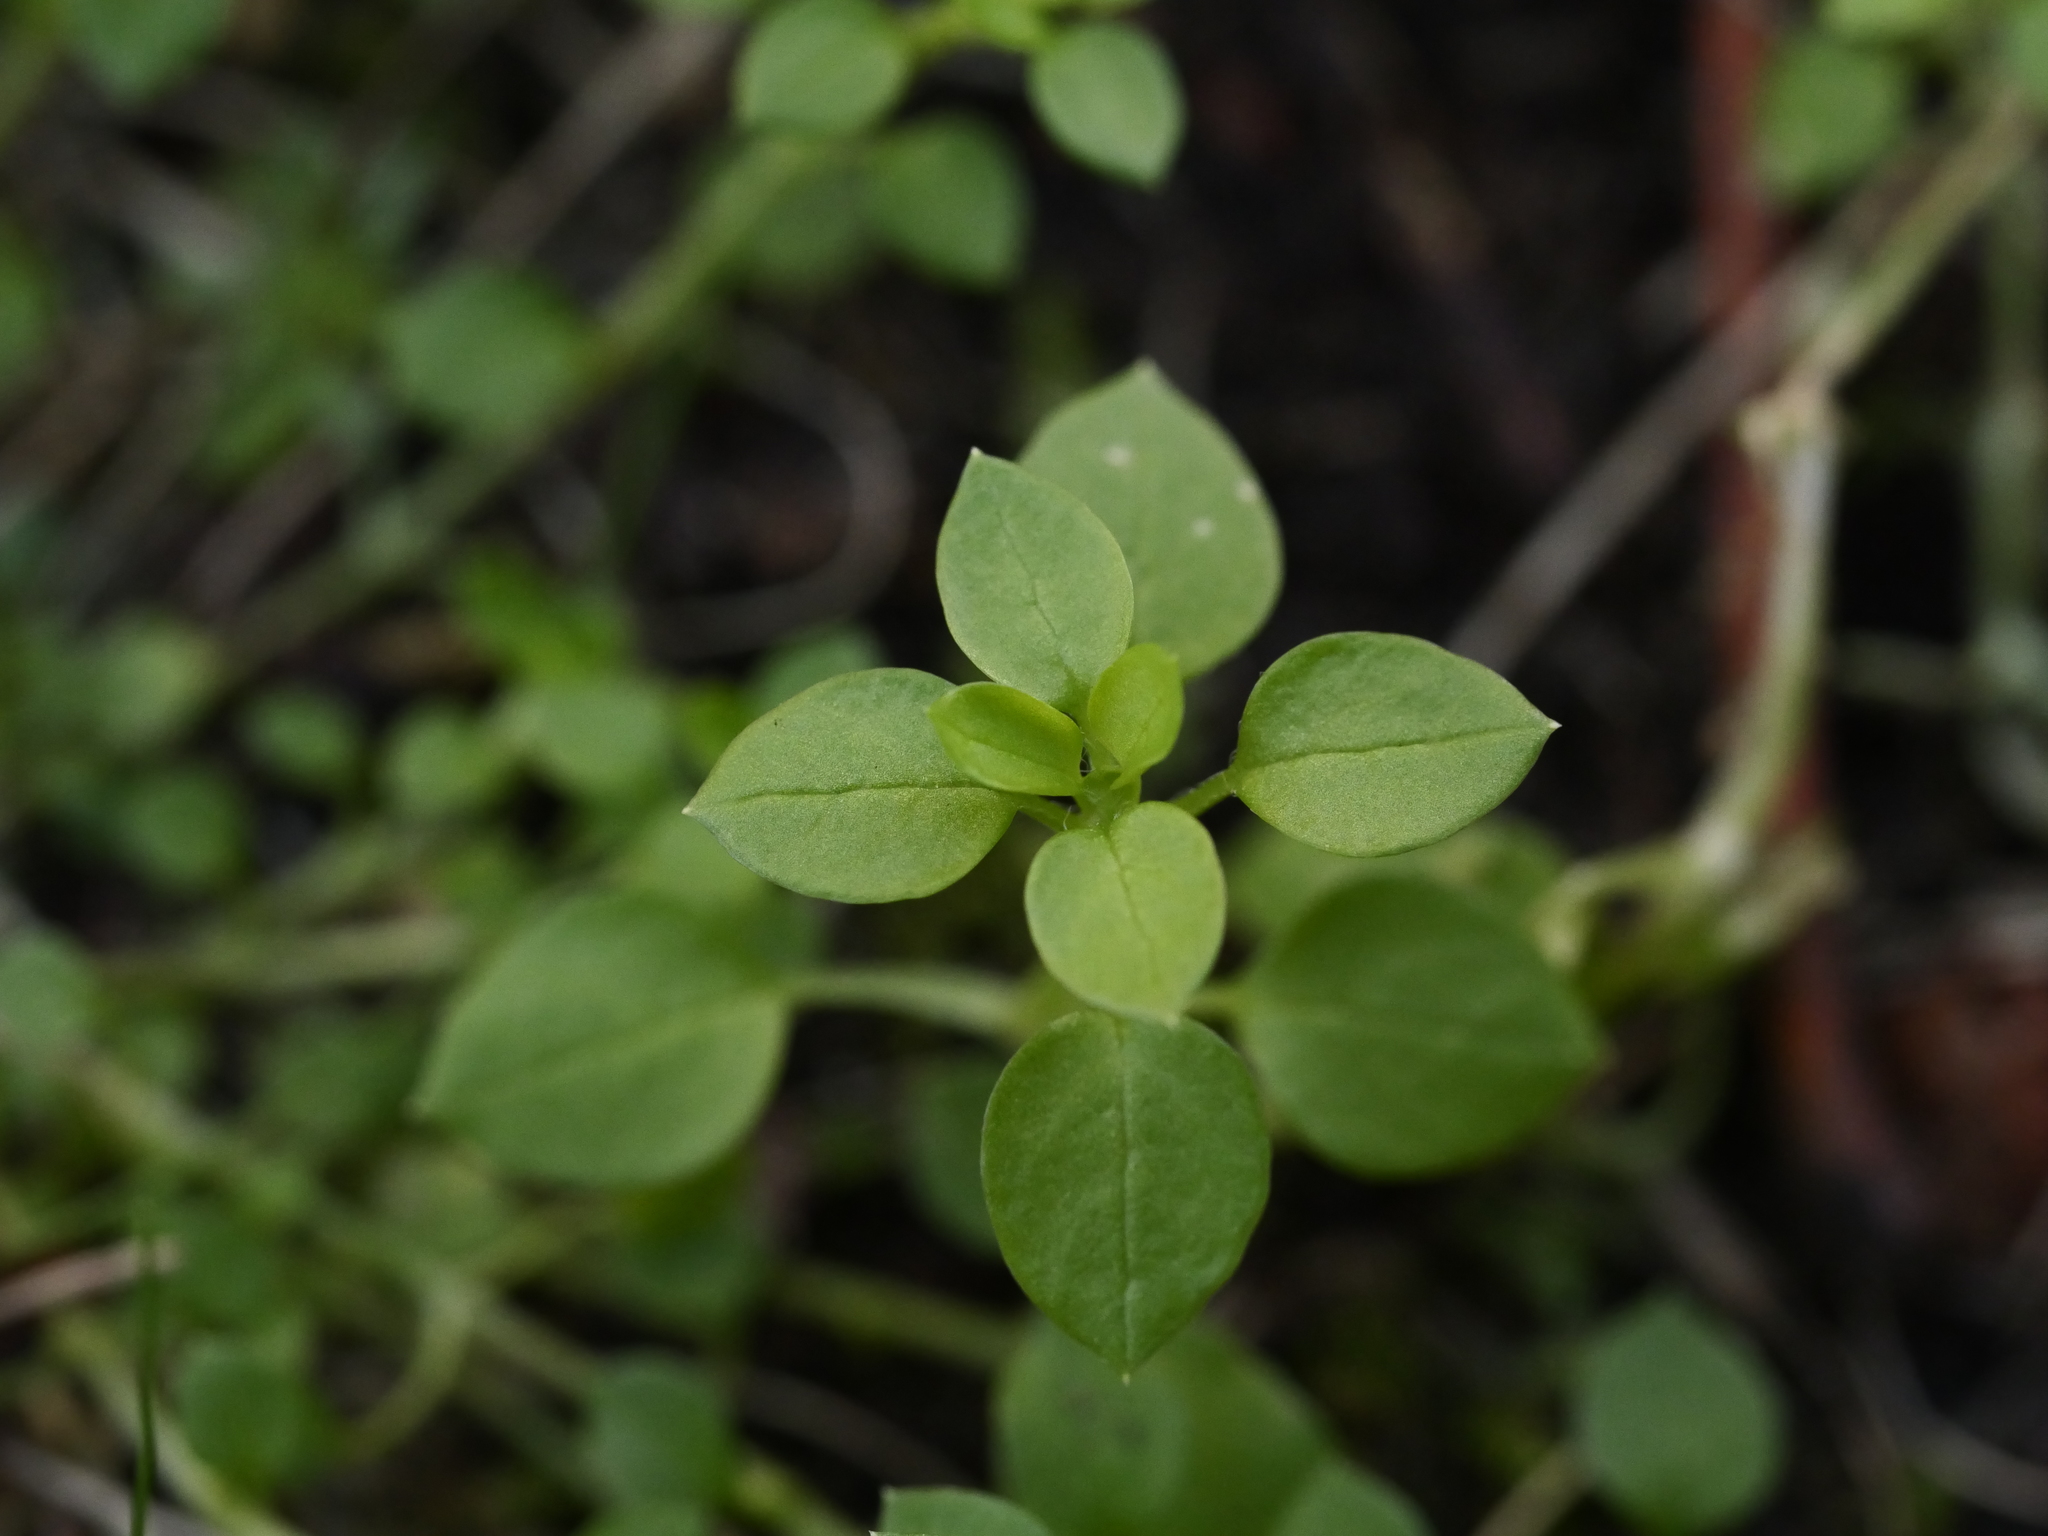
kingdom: Plantae
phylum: Tracheophyta
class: Magnoliopsida
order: Caryophyllales
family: Caryophyllaceae
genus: Stellaria
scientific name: Stellaria media
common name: Common chickweed
